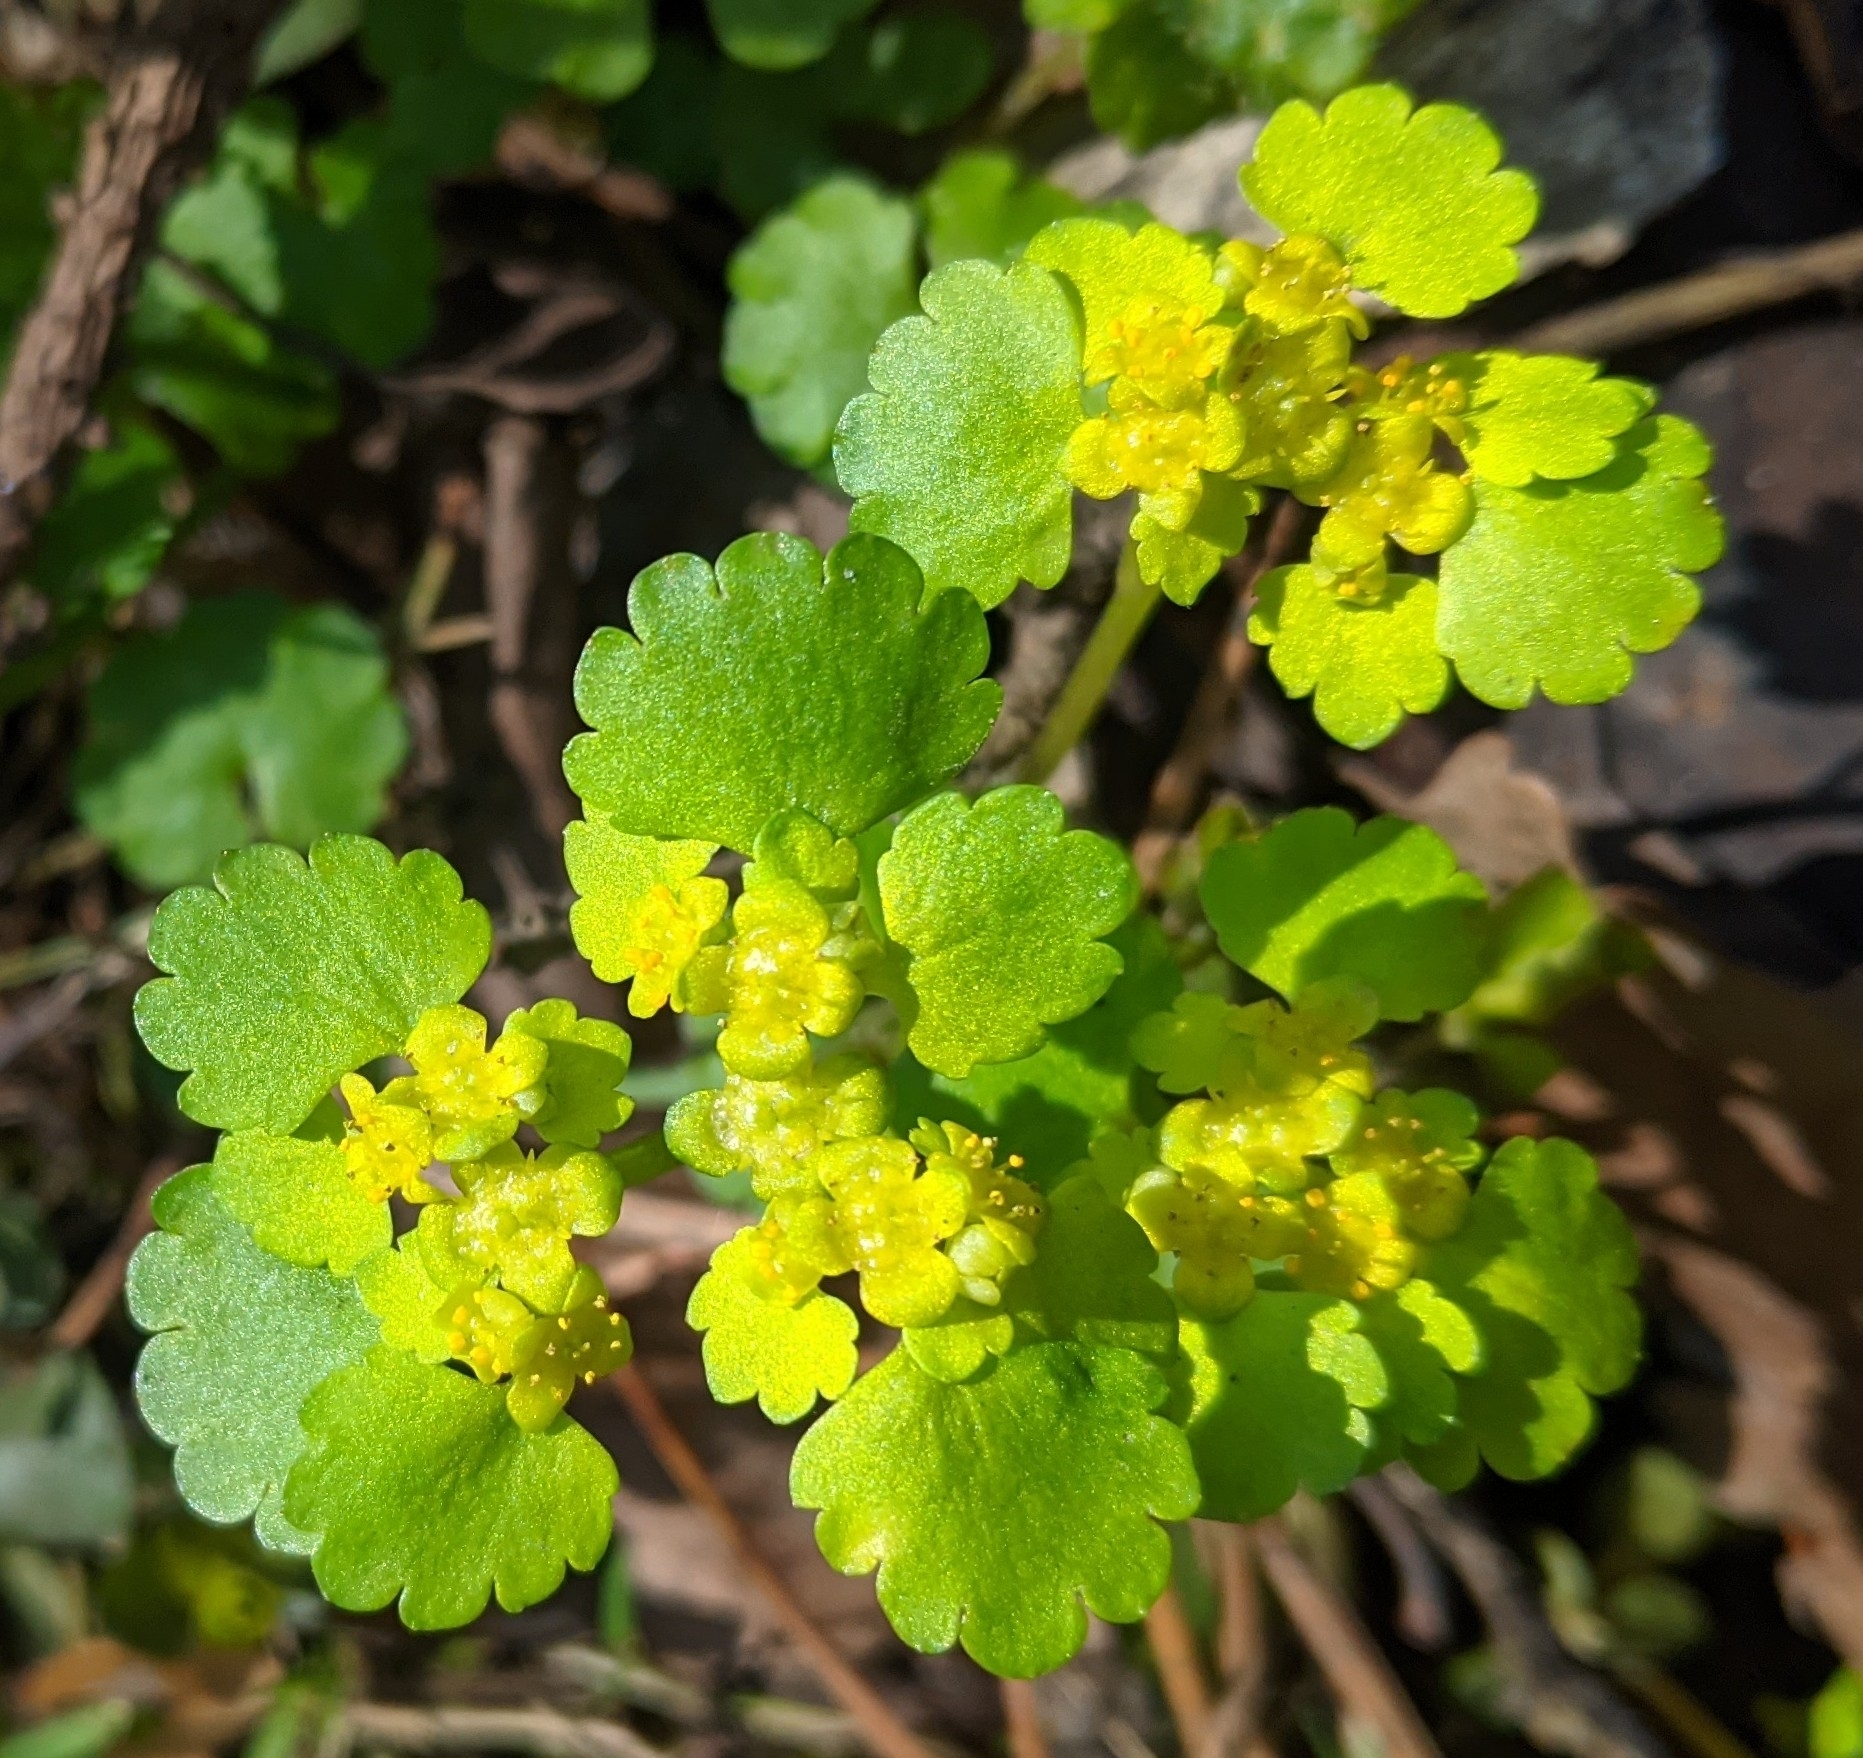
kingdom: Plantae
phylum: Tracheophyta
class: Magnoliopsida
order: Saxifragales
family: Saxifragaceae
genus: Chrysosplenium
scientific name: Chrysosplenium alternifolium
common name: Alternate-leaved golden-saxifrage
